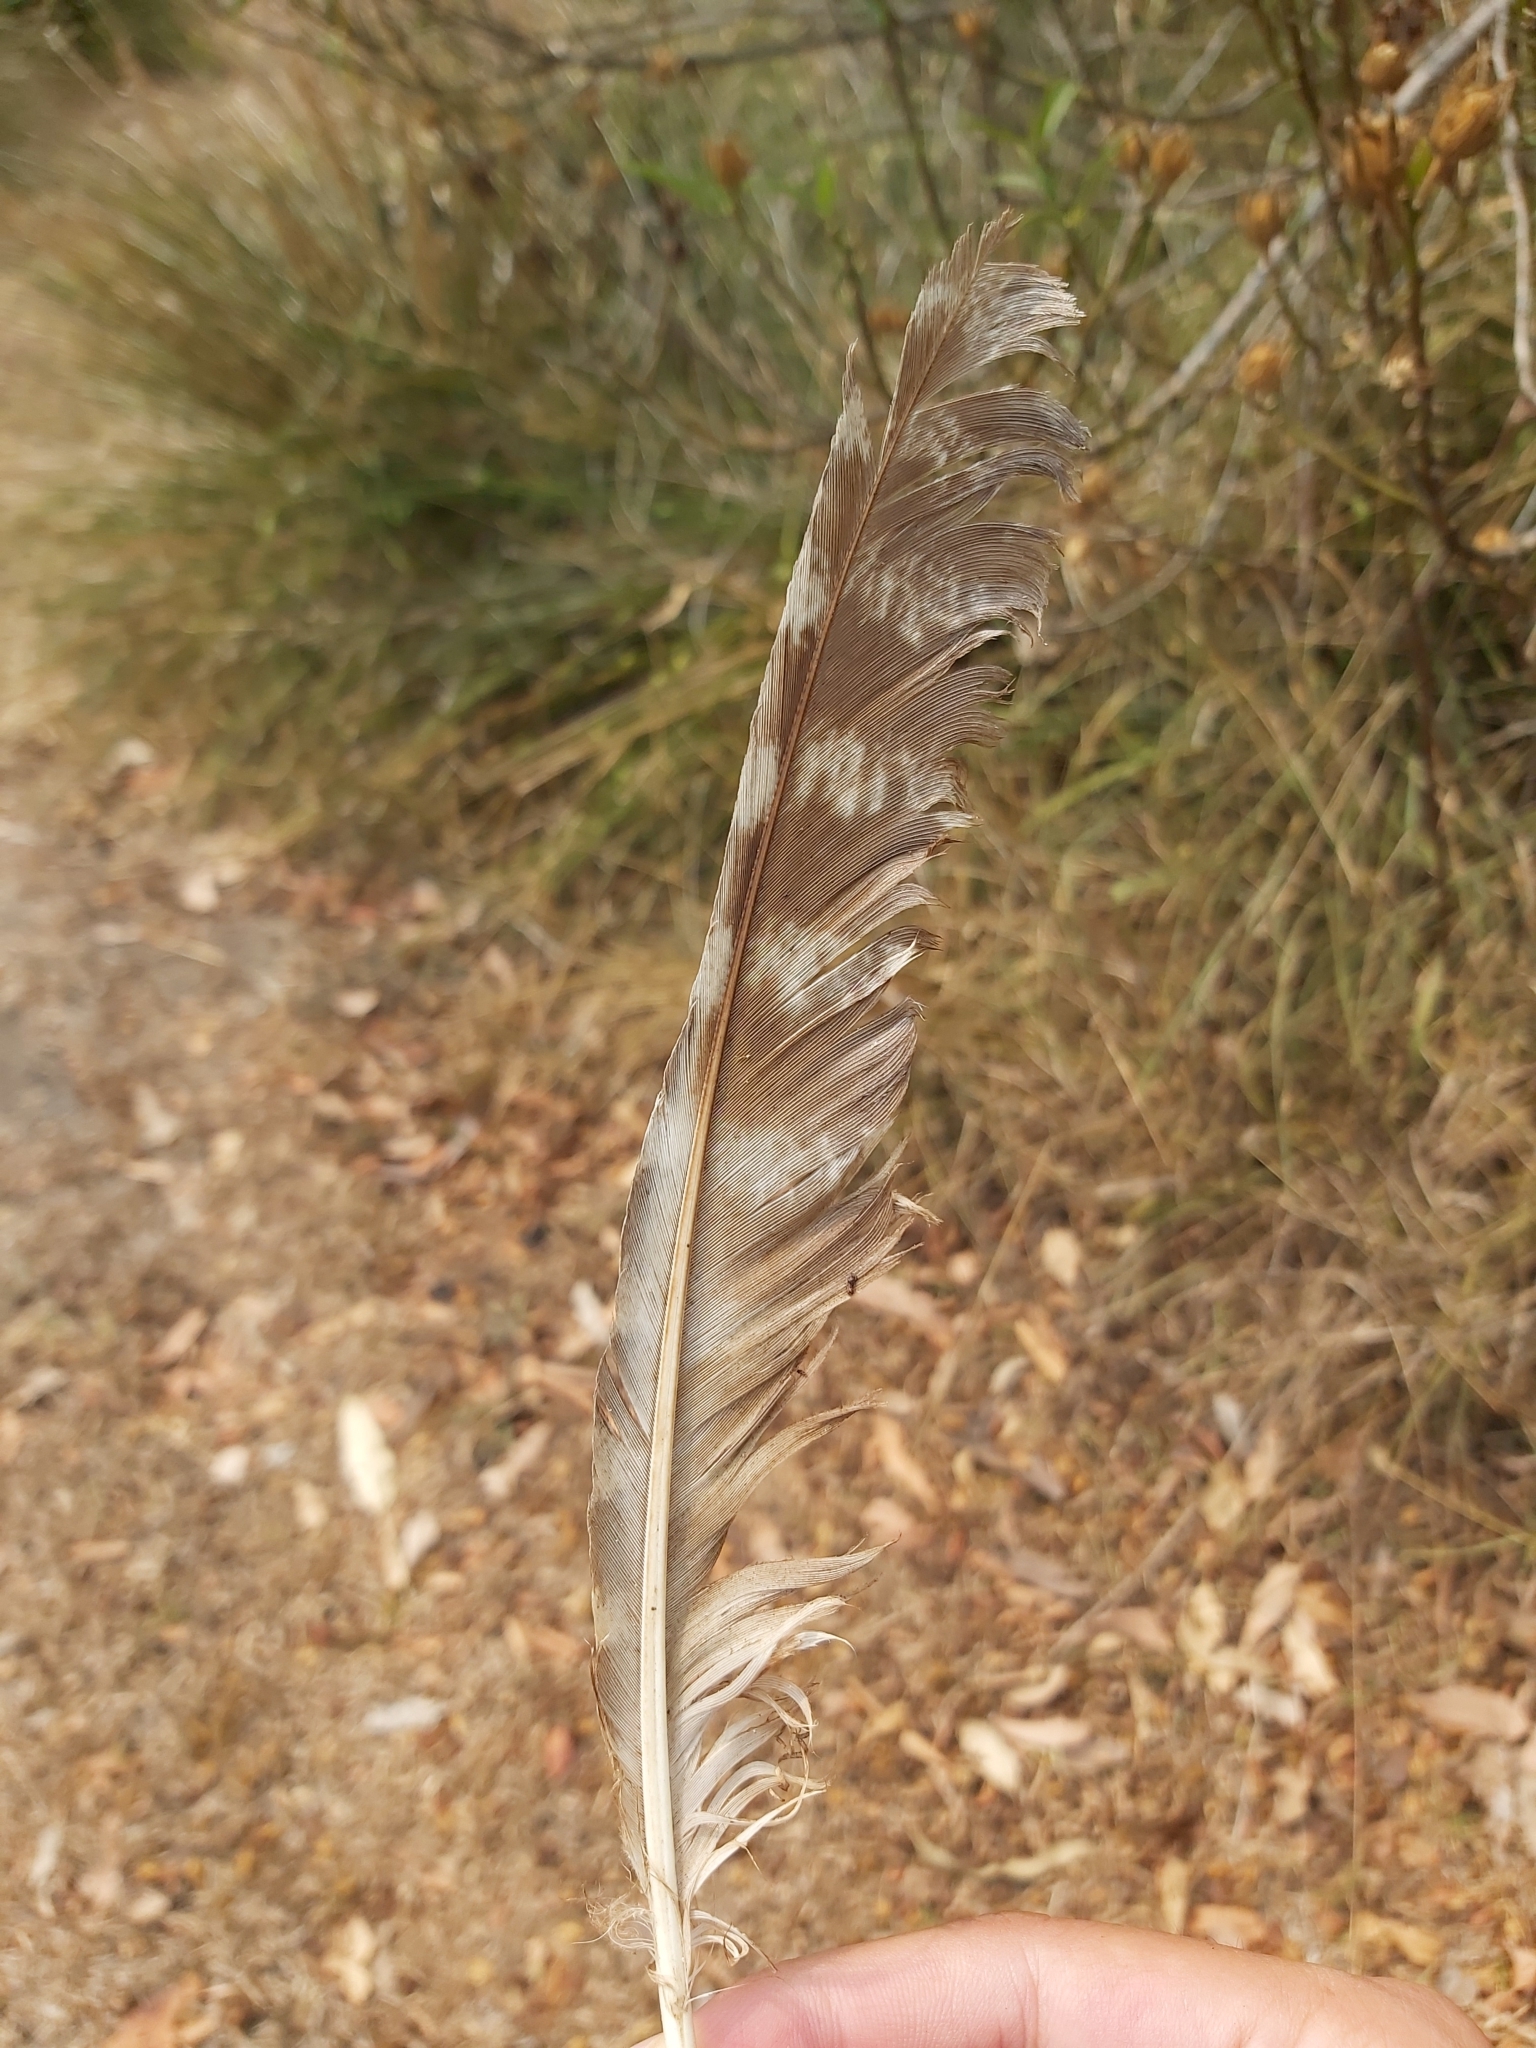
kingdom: Animalia
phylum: Chordata
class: Aves
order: Caprimulgiformes
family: Podargidae
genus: Podargus
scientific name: Podargus strigoides
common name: Tawny frogmouth
